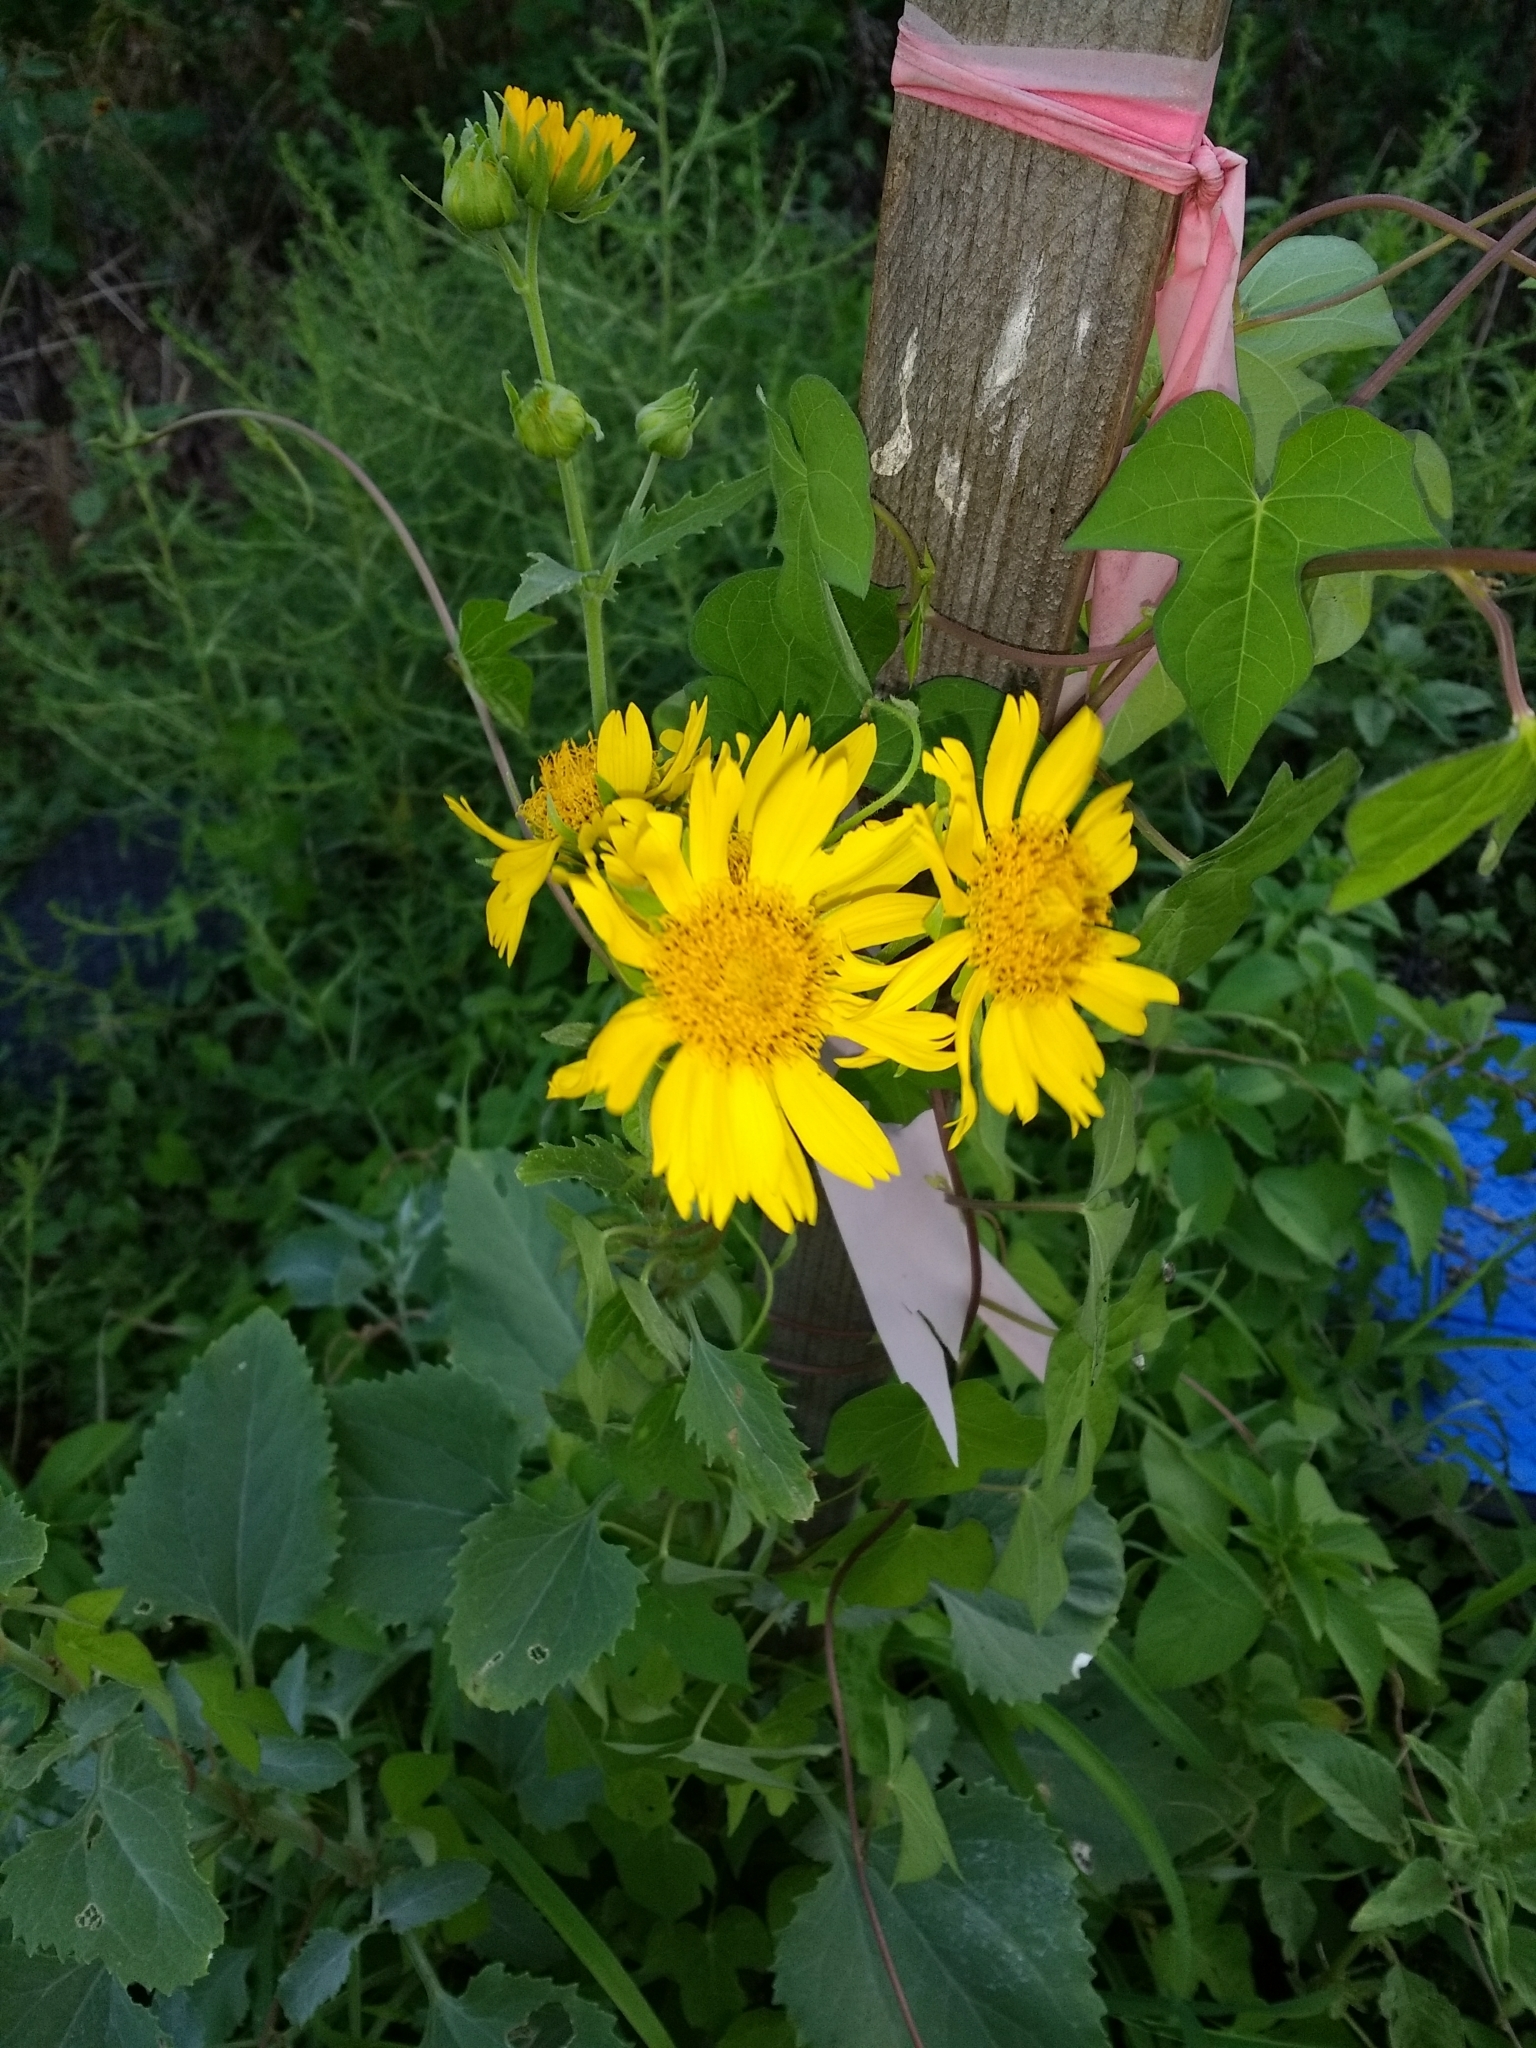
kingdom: Plantae
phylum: Tracheophyta
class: Magnoliopsida
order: Asterales
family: Asteraceae
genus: Verbesina
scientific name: Verbesina encelioides
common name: Golden crownbeard
